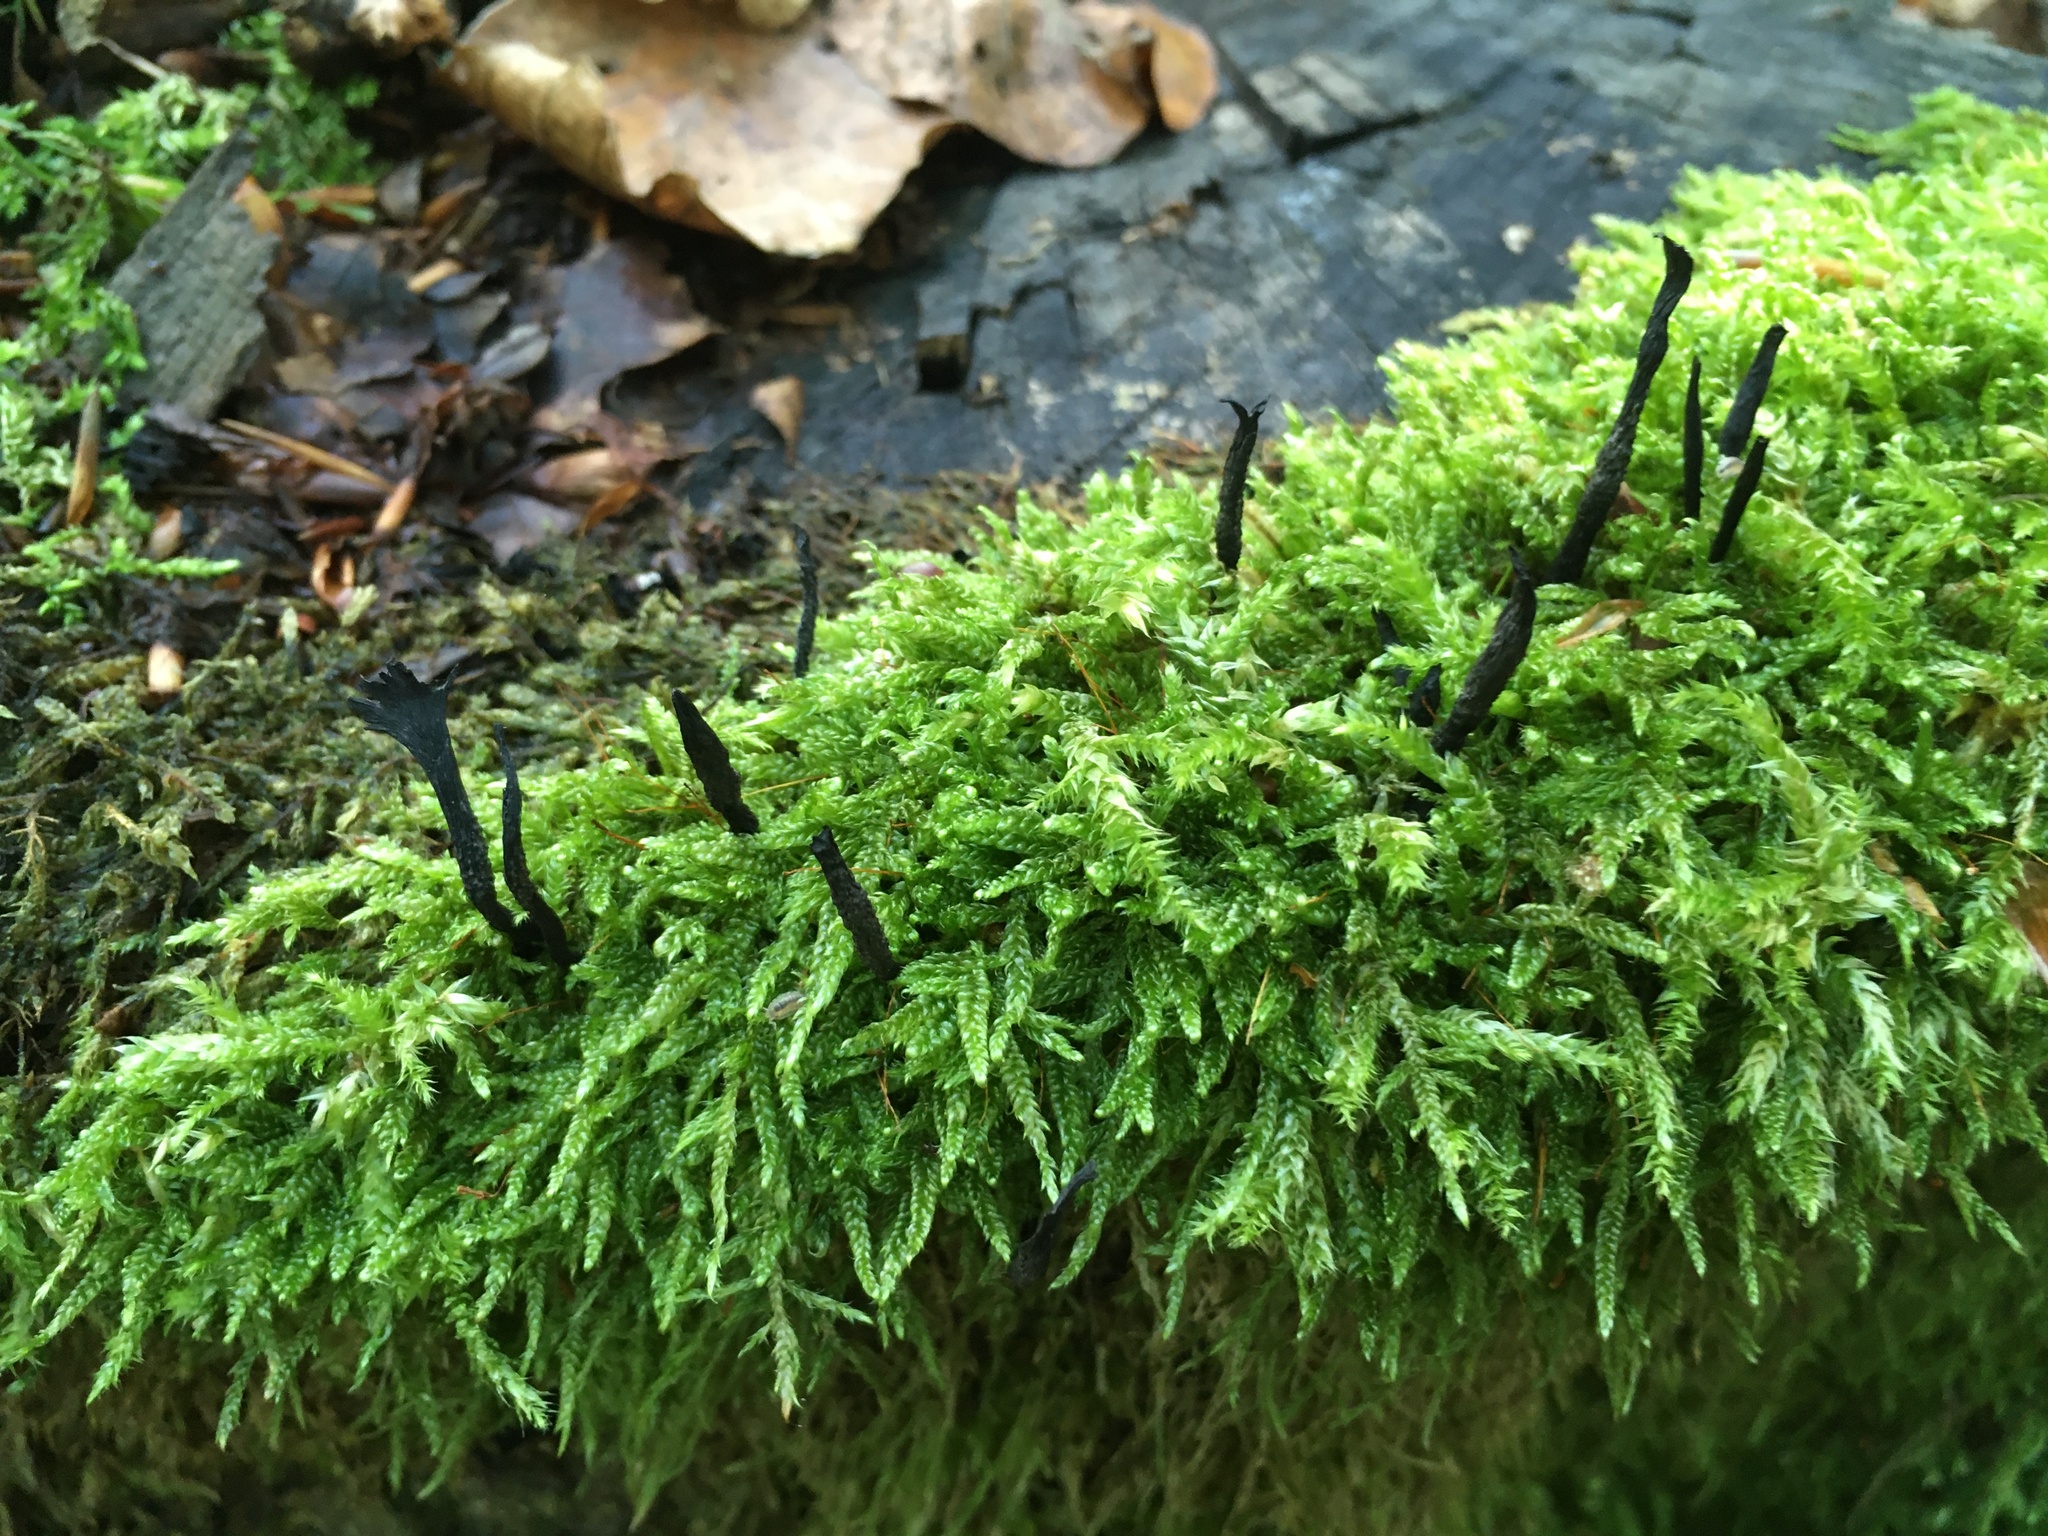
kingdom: Fungi
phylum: Ascomycota
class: Sordariomycetes
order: Xylariales
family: Xylariaceae
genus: Xylaria
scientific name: Xylaria hypoxylon
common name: Candle-snuff fungus
